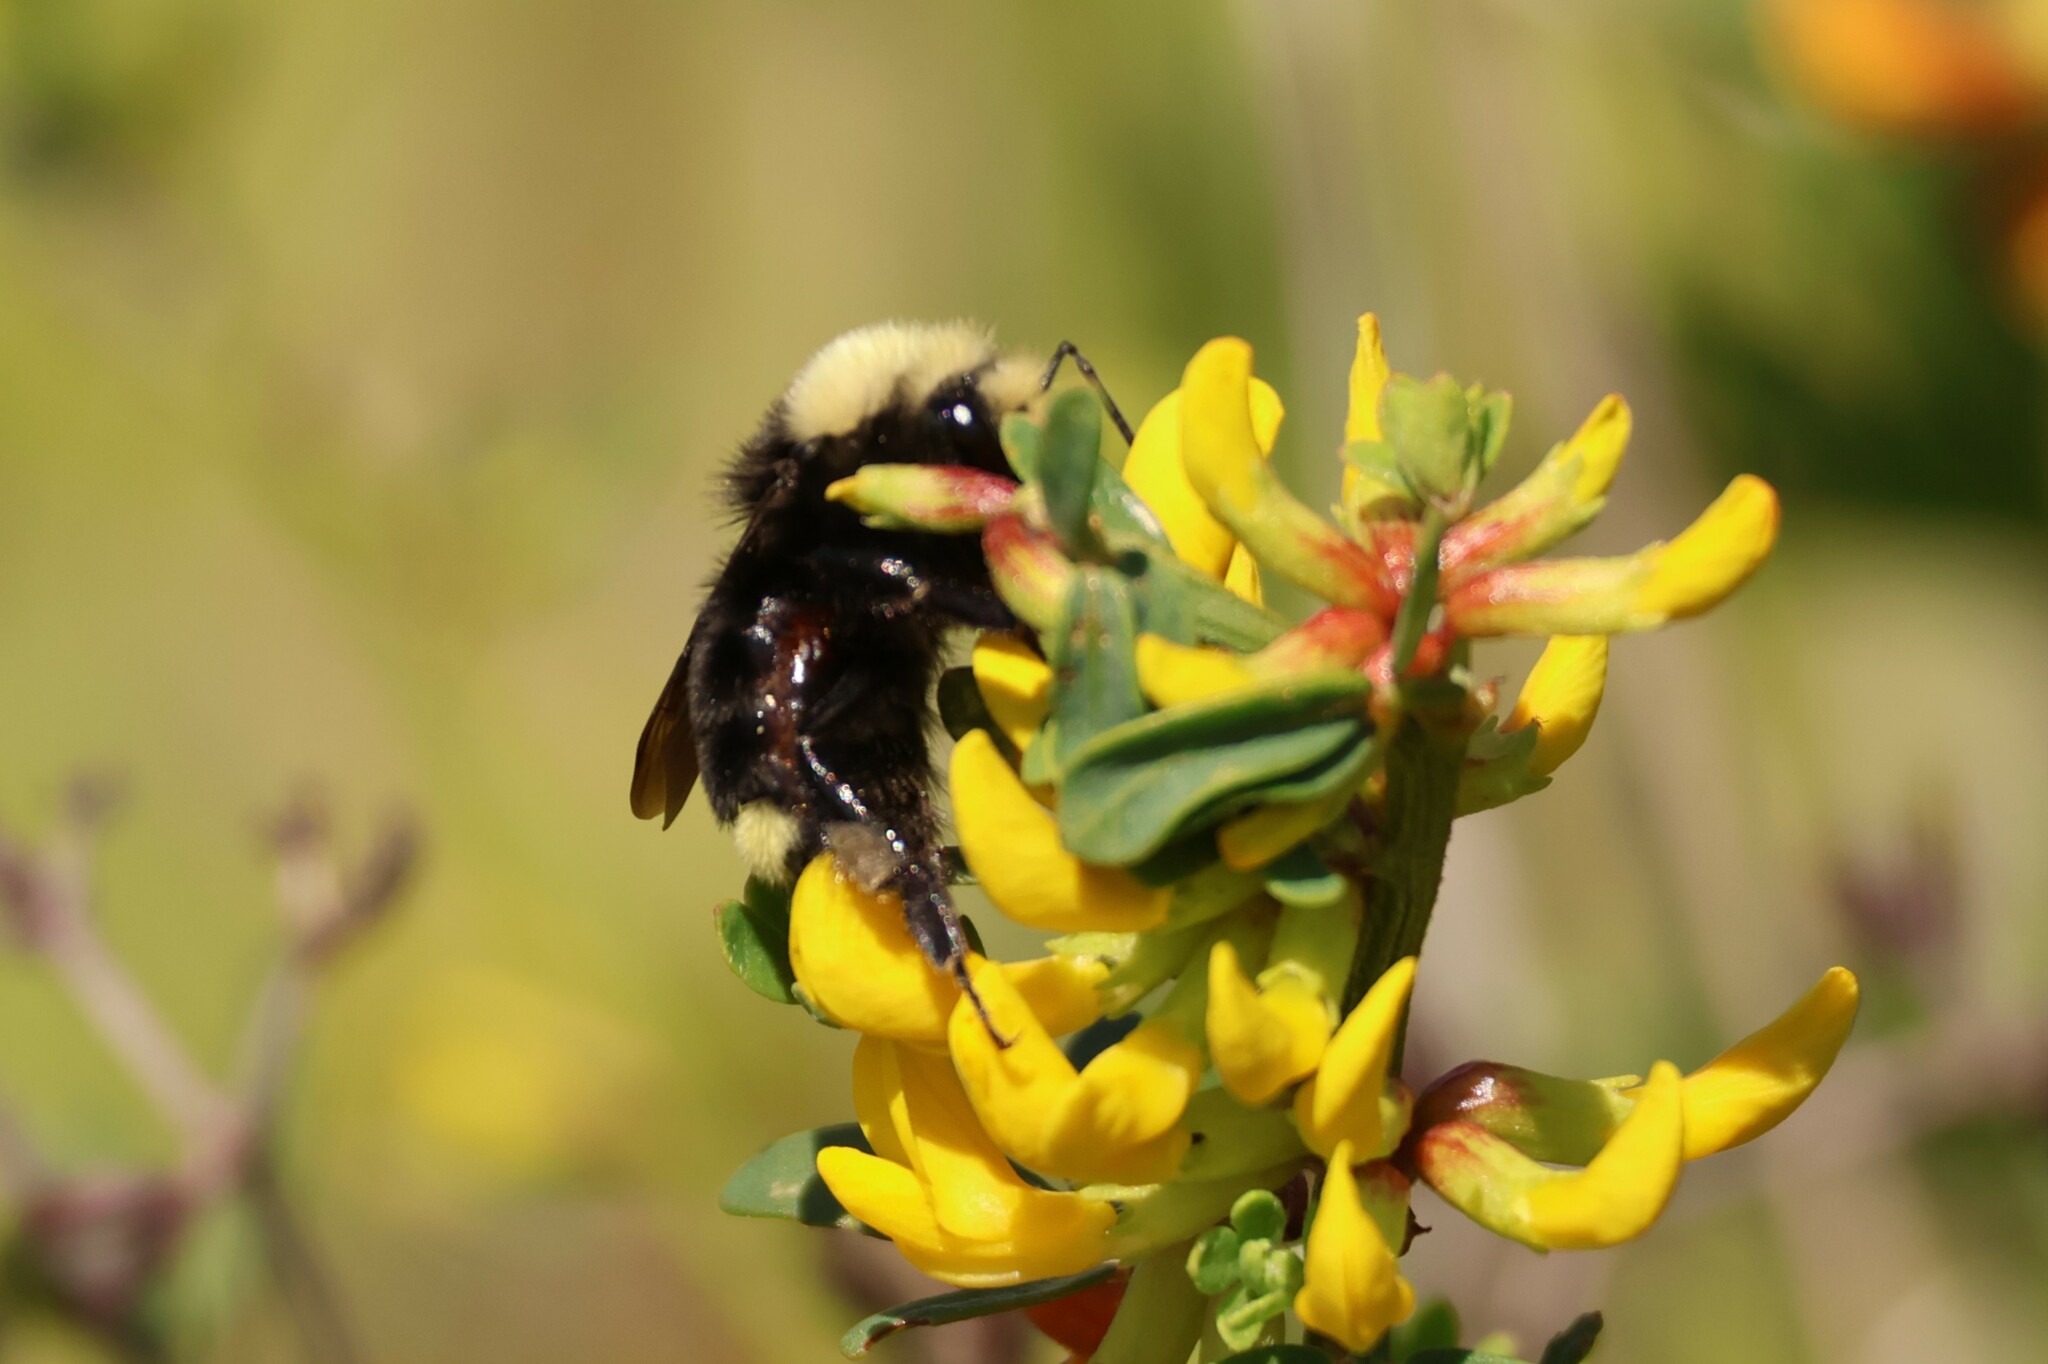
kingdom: Animalia
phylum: Arthropoda
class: Insecta
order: Hymenoptera
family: Apidae
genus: Bombus
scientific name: Bombus vosnesenskii
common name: Vosnesensky bumble bee
